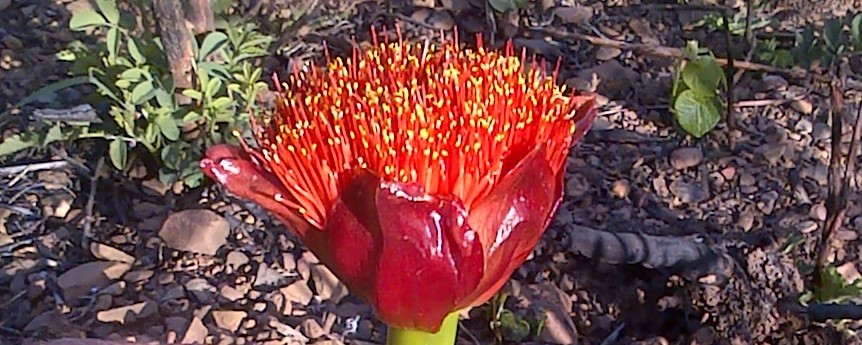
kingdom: Plantae
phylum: Tracheophyta
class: Liliopsida
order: Asparagales
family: Amaryllidaceae
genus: Scadoxus
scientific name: Scadoxus puniceus
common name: Royal-paintbrush
